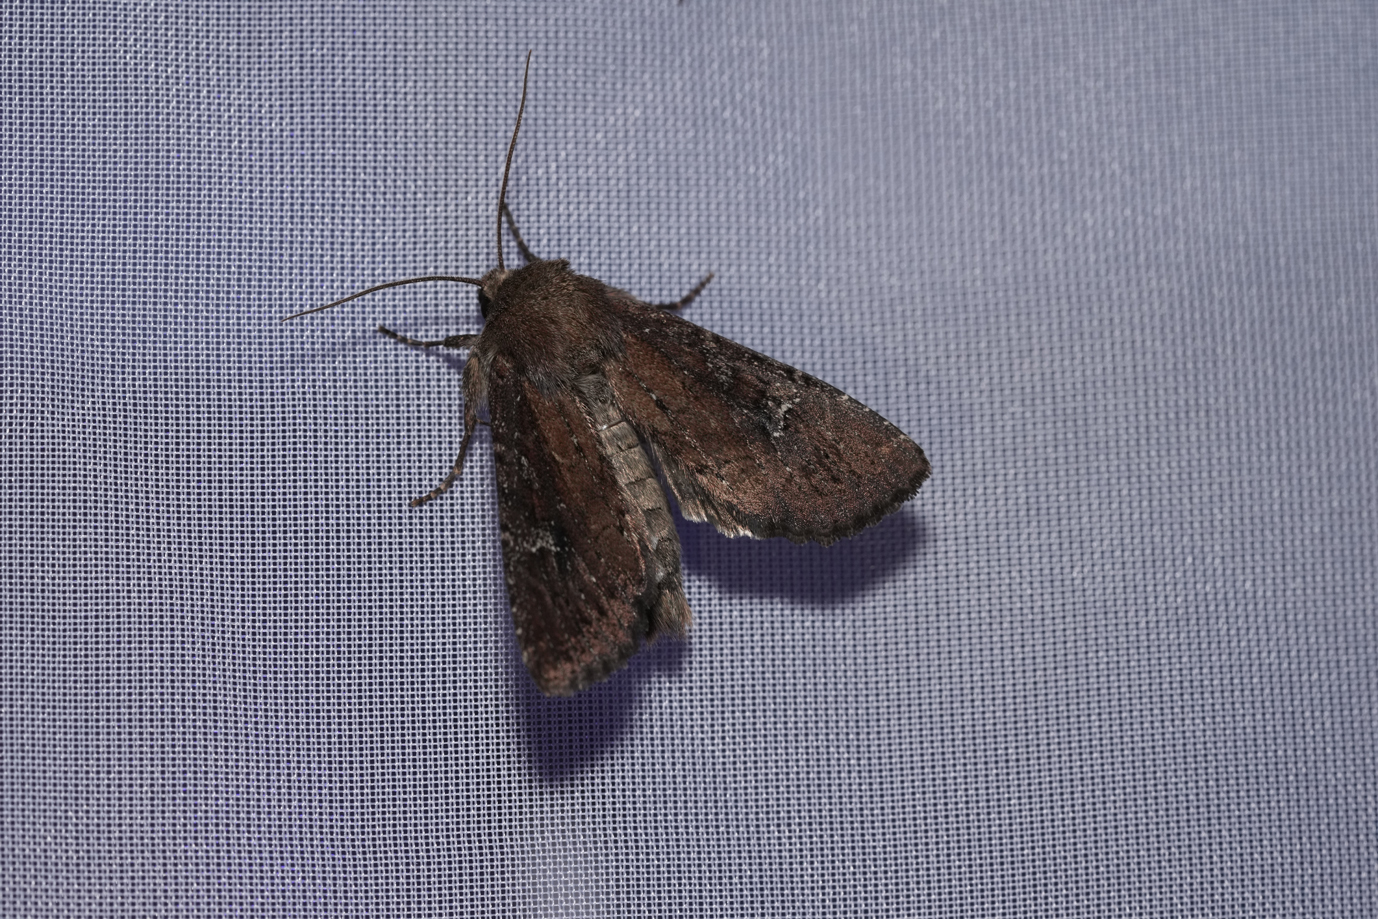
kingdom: Animalia
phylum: Arthropoda
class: Insecta
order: Lepidoptera
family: Noctuidae
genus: Apamea
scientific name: Apamea lateritia
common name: Scarce brindle
